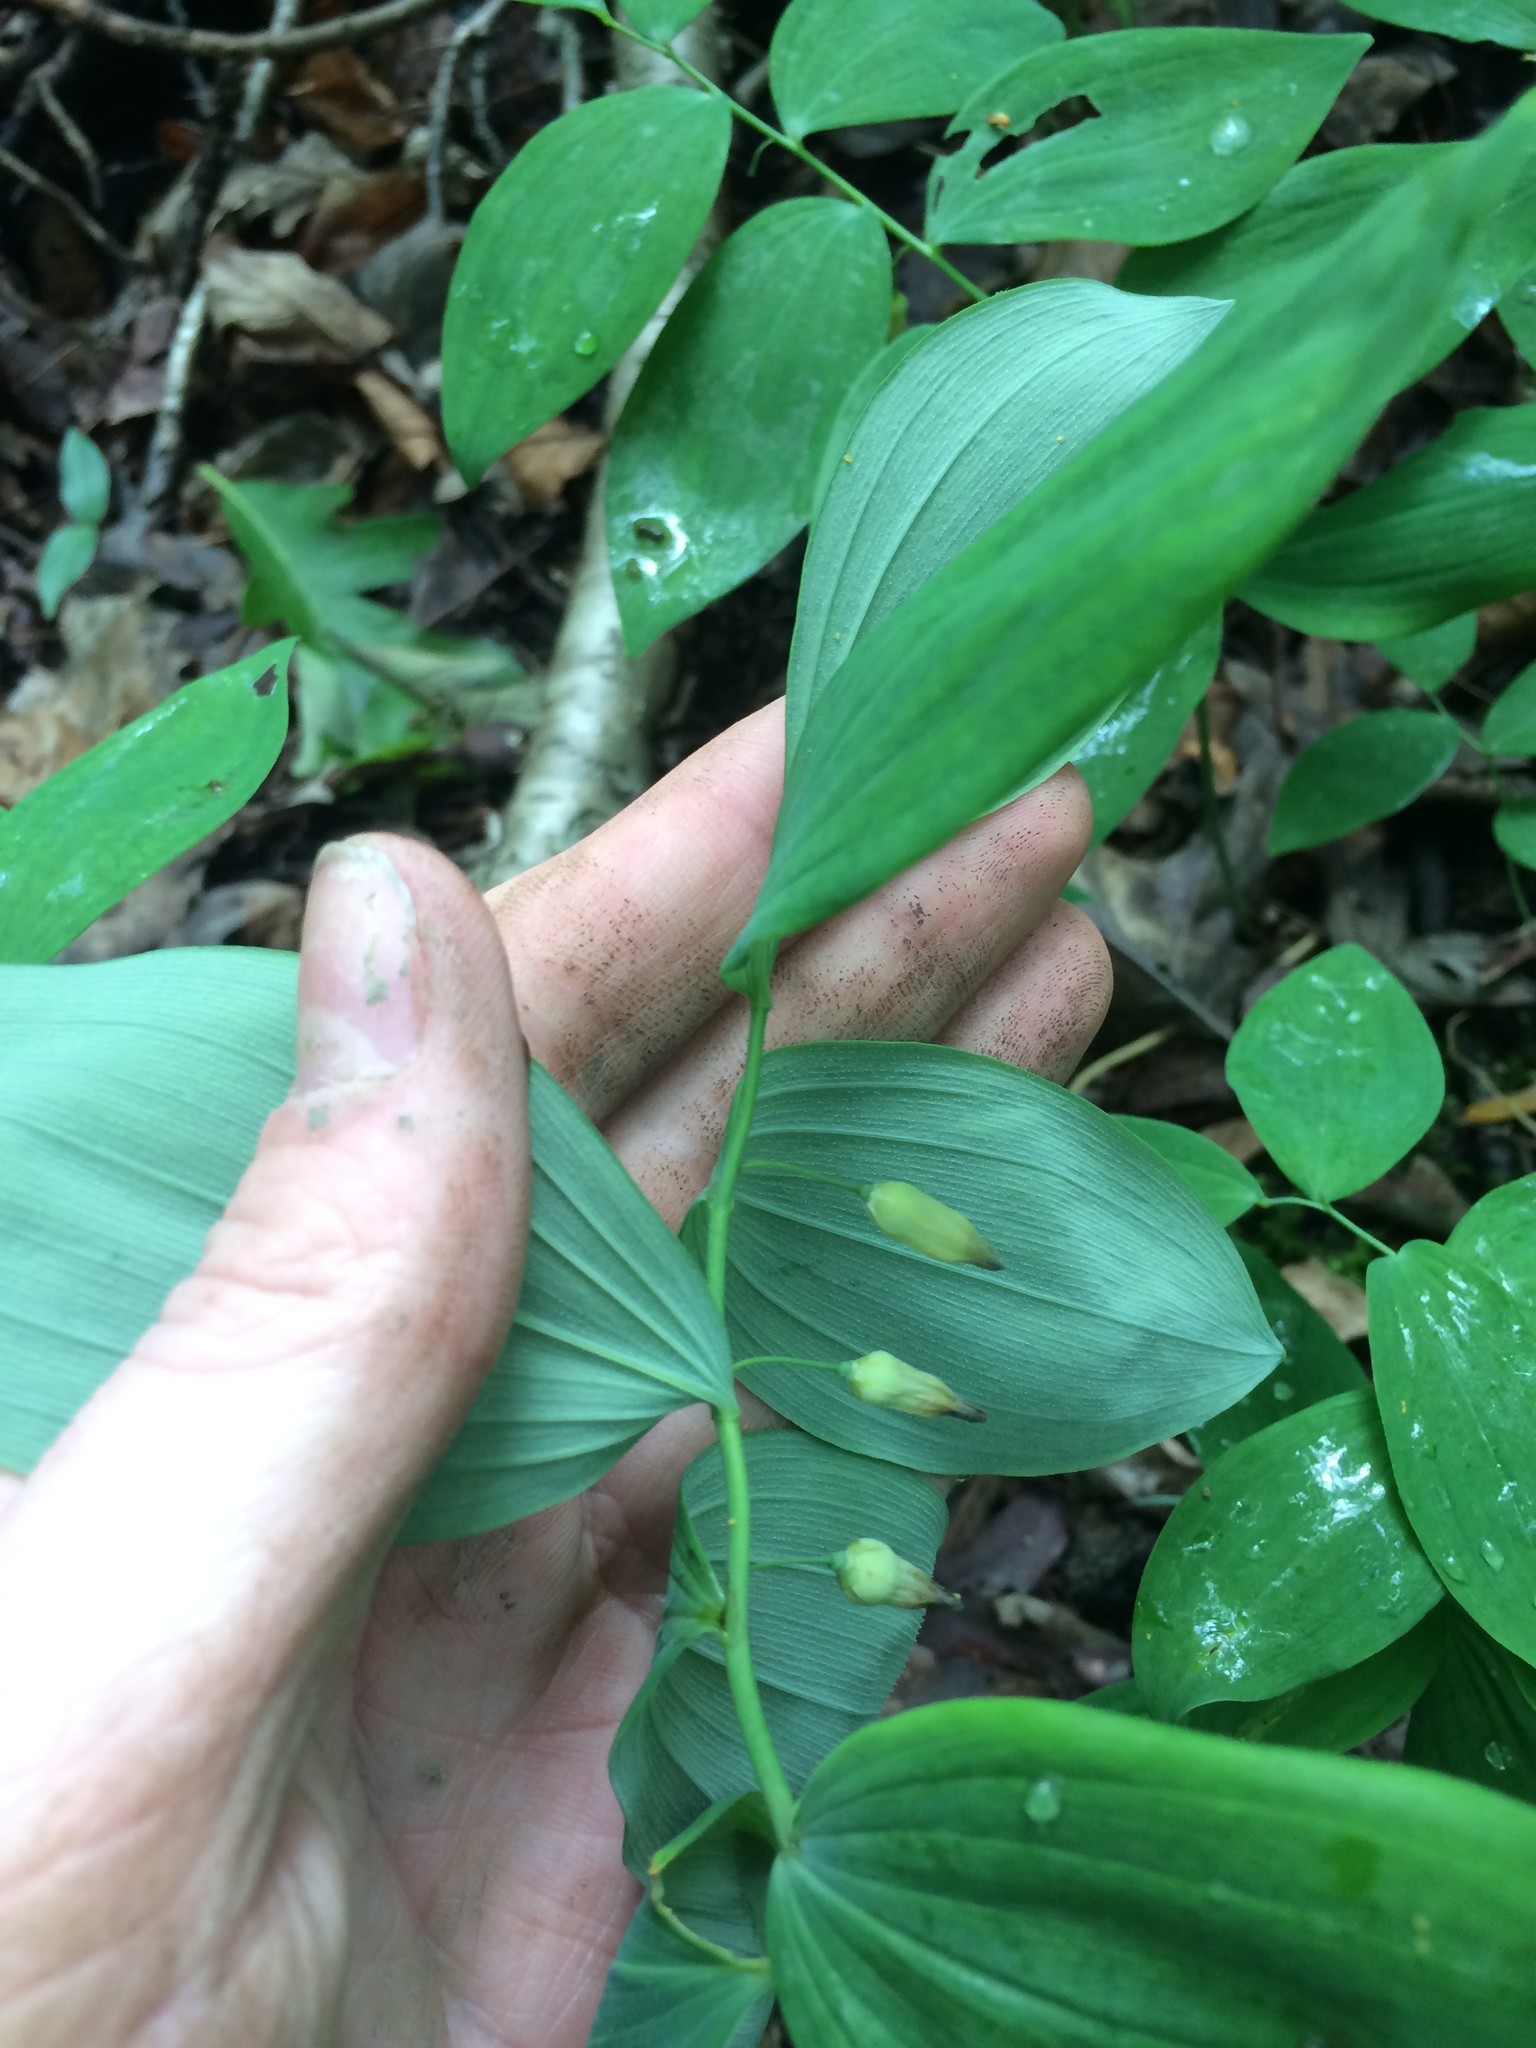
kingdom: Plantae
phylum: Tracheophyta
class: Liliopsida
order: Asparagales
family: Asparagaceae
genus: Polygonatum
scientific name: Polygonatum pubescens
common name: Downy solomon's seal
